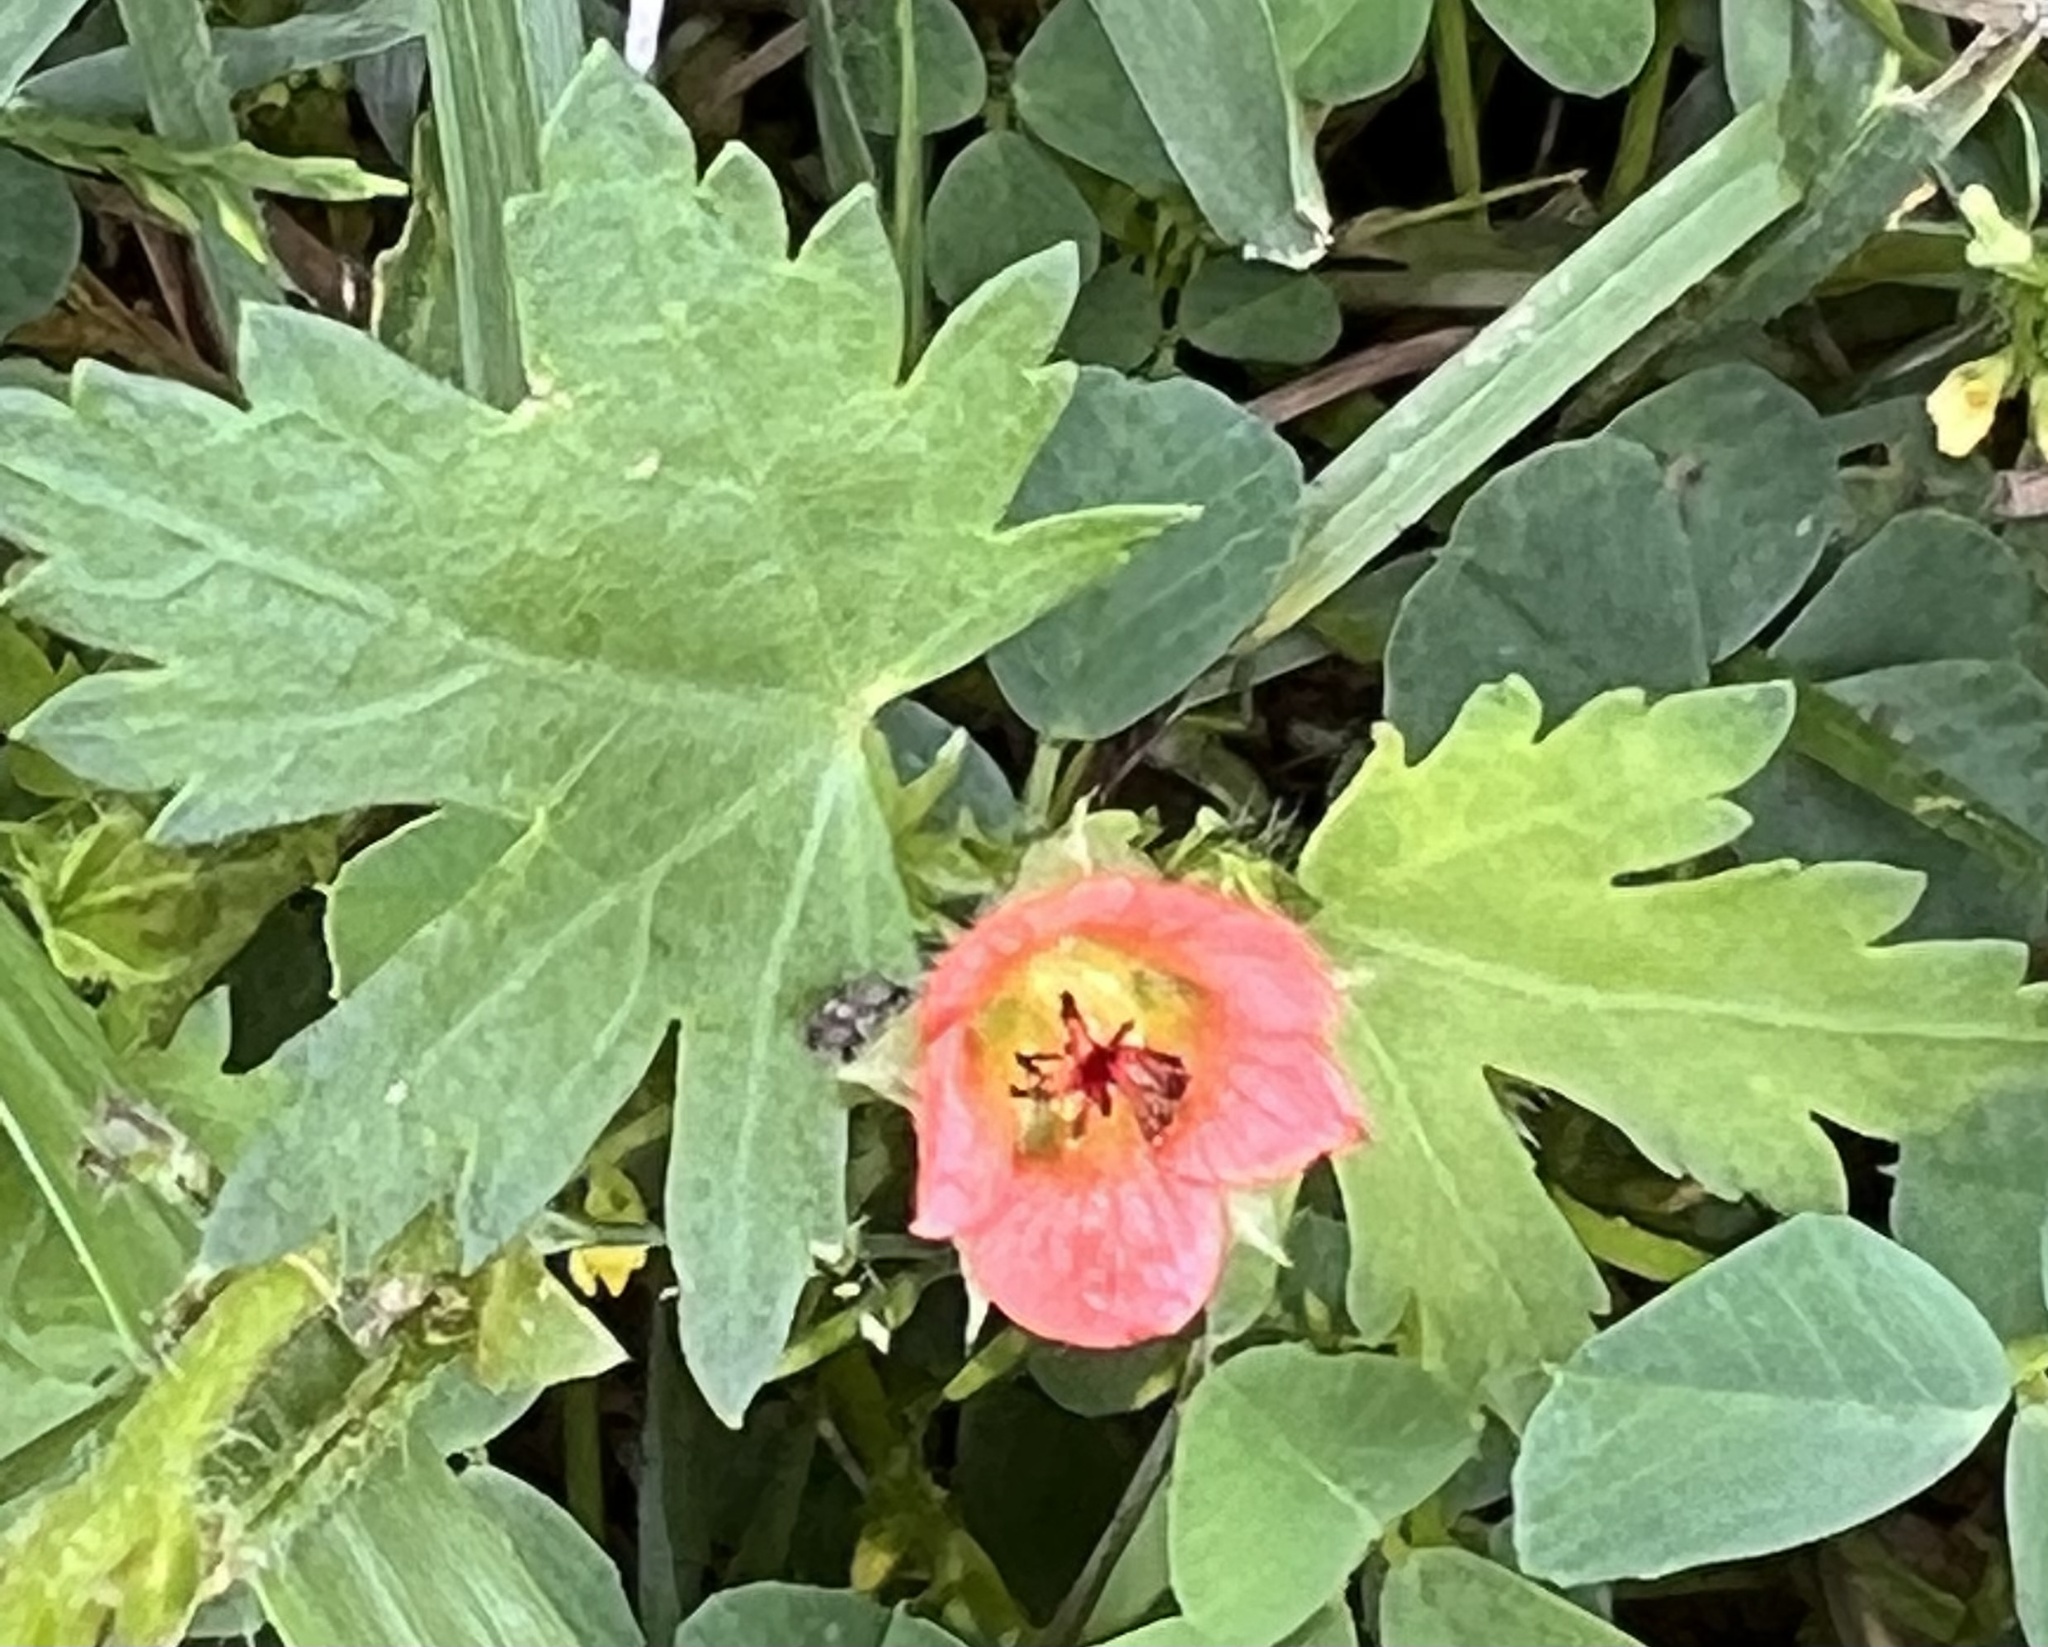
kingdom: Plantae
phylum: Tracheophyta
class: Magnoliopsida
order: Malvales
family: Malvaceae
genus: Modiola
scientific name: Modiola caroliniana
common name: Carolina bristlemallow
